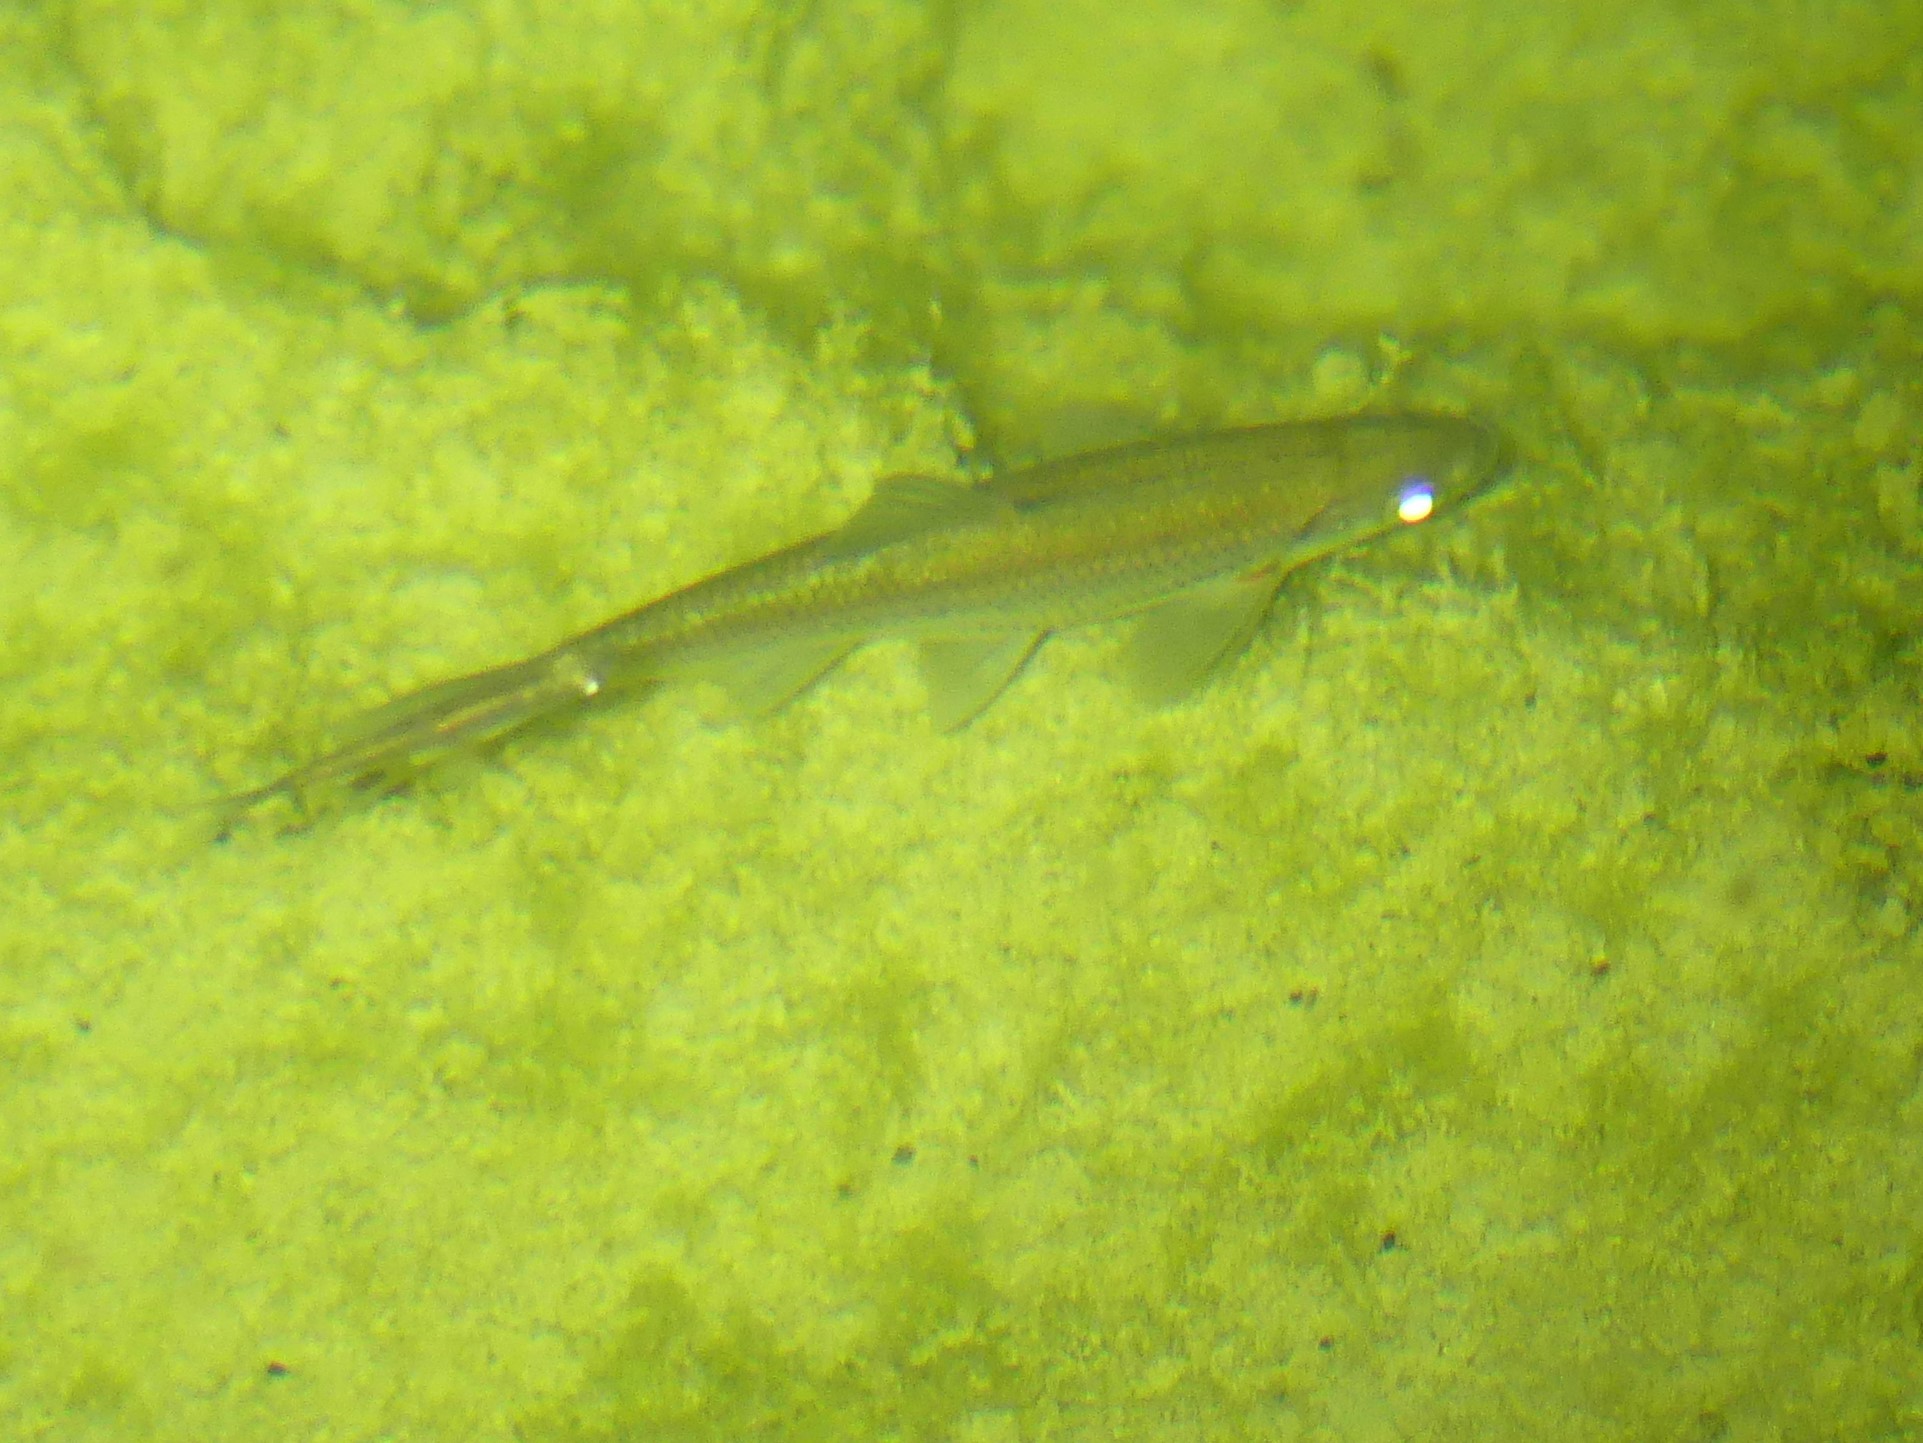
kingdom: Animalia
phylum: Chordata
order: Cypriniformes
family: Cyprinidae
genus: Alburnoides
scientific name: Alburnoides bipunctatus
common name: Spirlin
